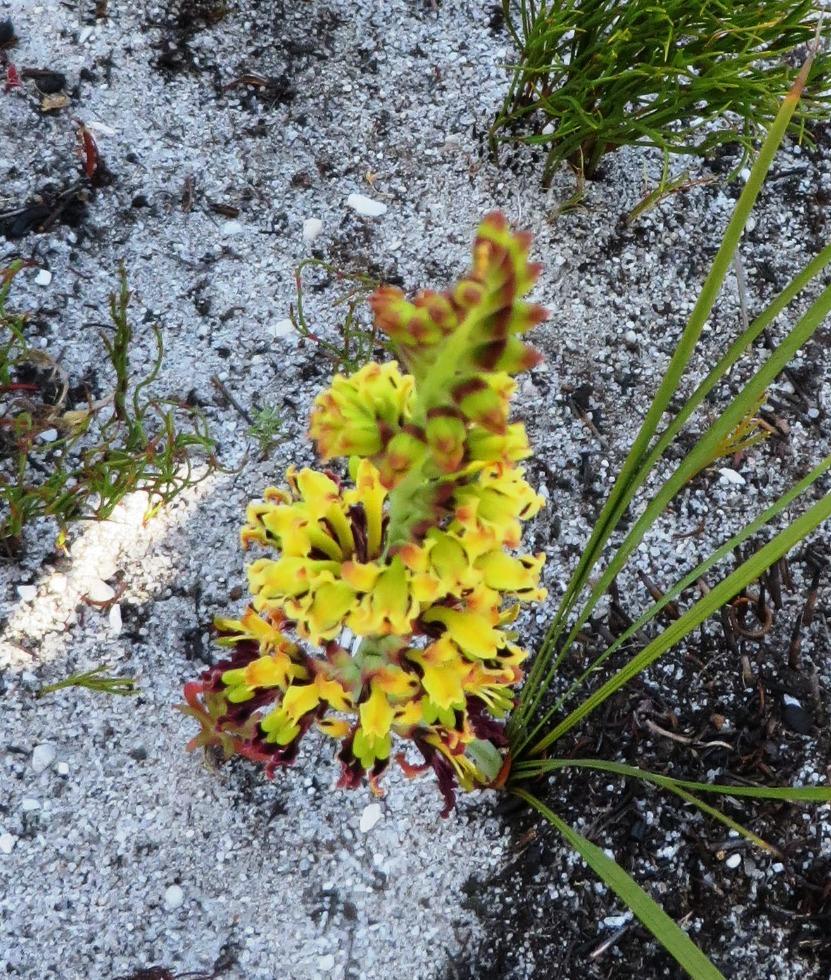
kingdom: Plantae
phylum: Tracheophyta
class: Liliopsida
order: Asparagales
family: Iridaceae
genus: Tritoniopsis
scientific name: Tritoniopsis parviflora
